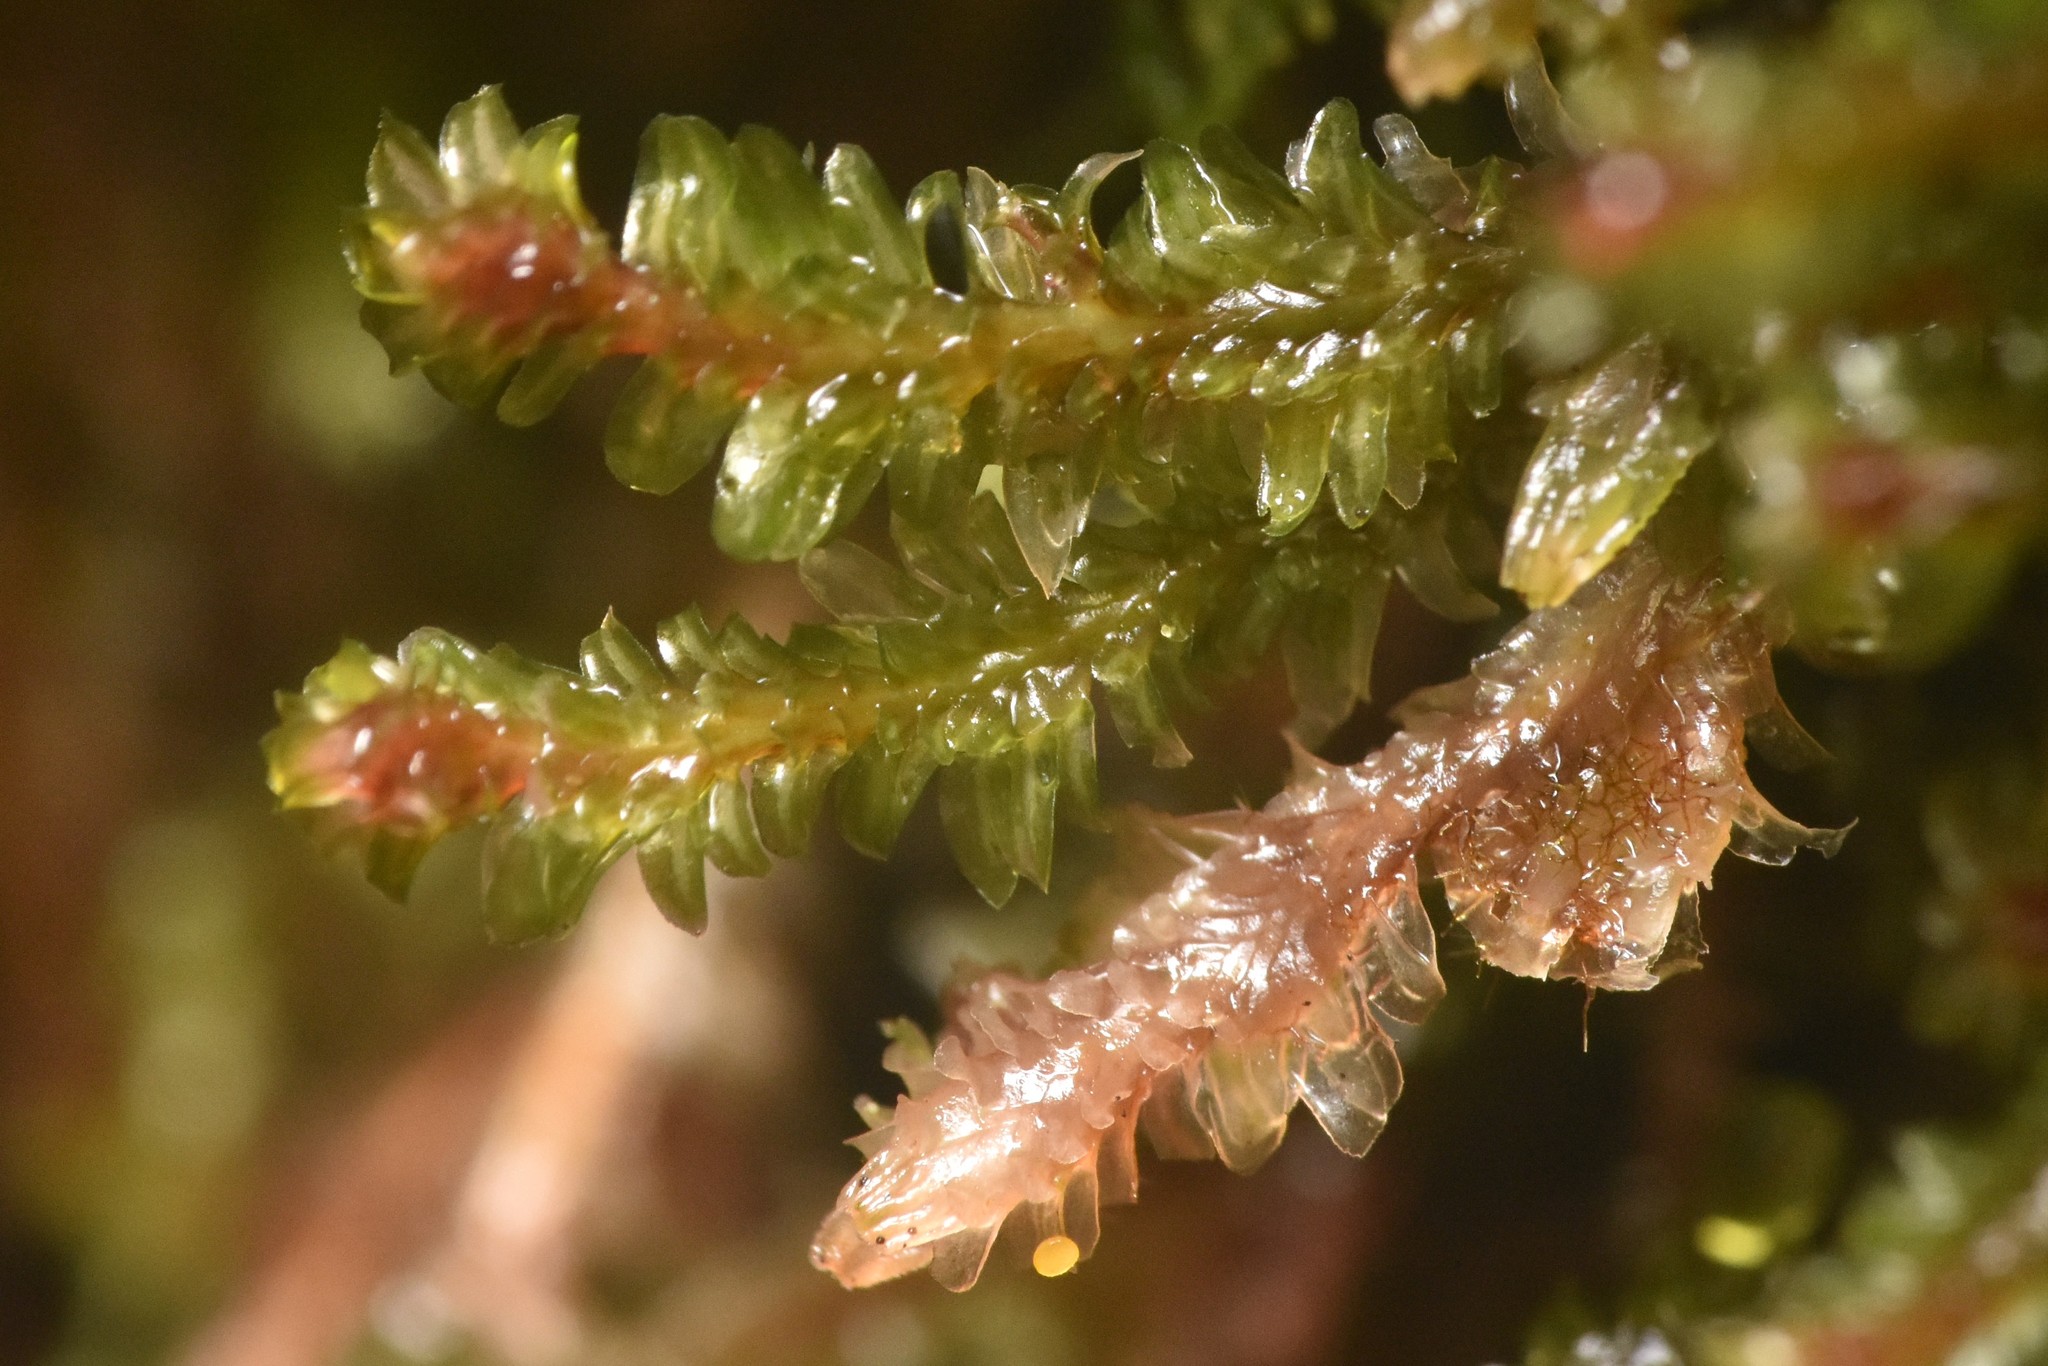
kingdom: Plantae
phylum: Marchantiophyta
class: Jungermanniopsida
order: Jungermanniales
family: Scapaniaceae
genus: Diplophyllum
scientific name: Diplophyllum albicans
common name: White earwort
